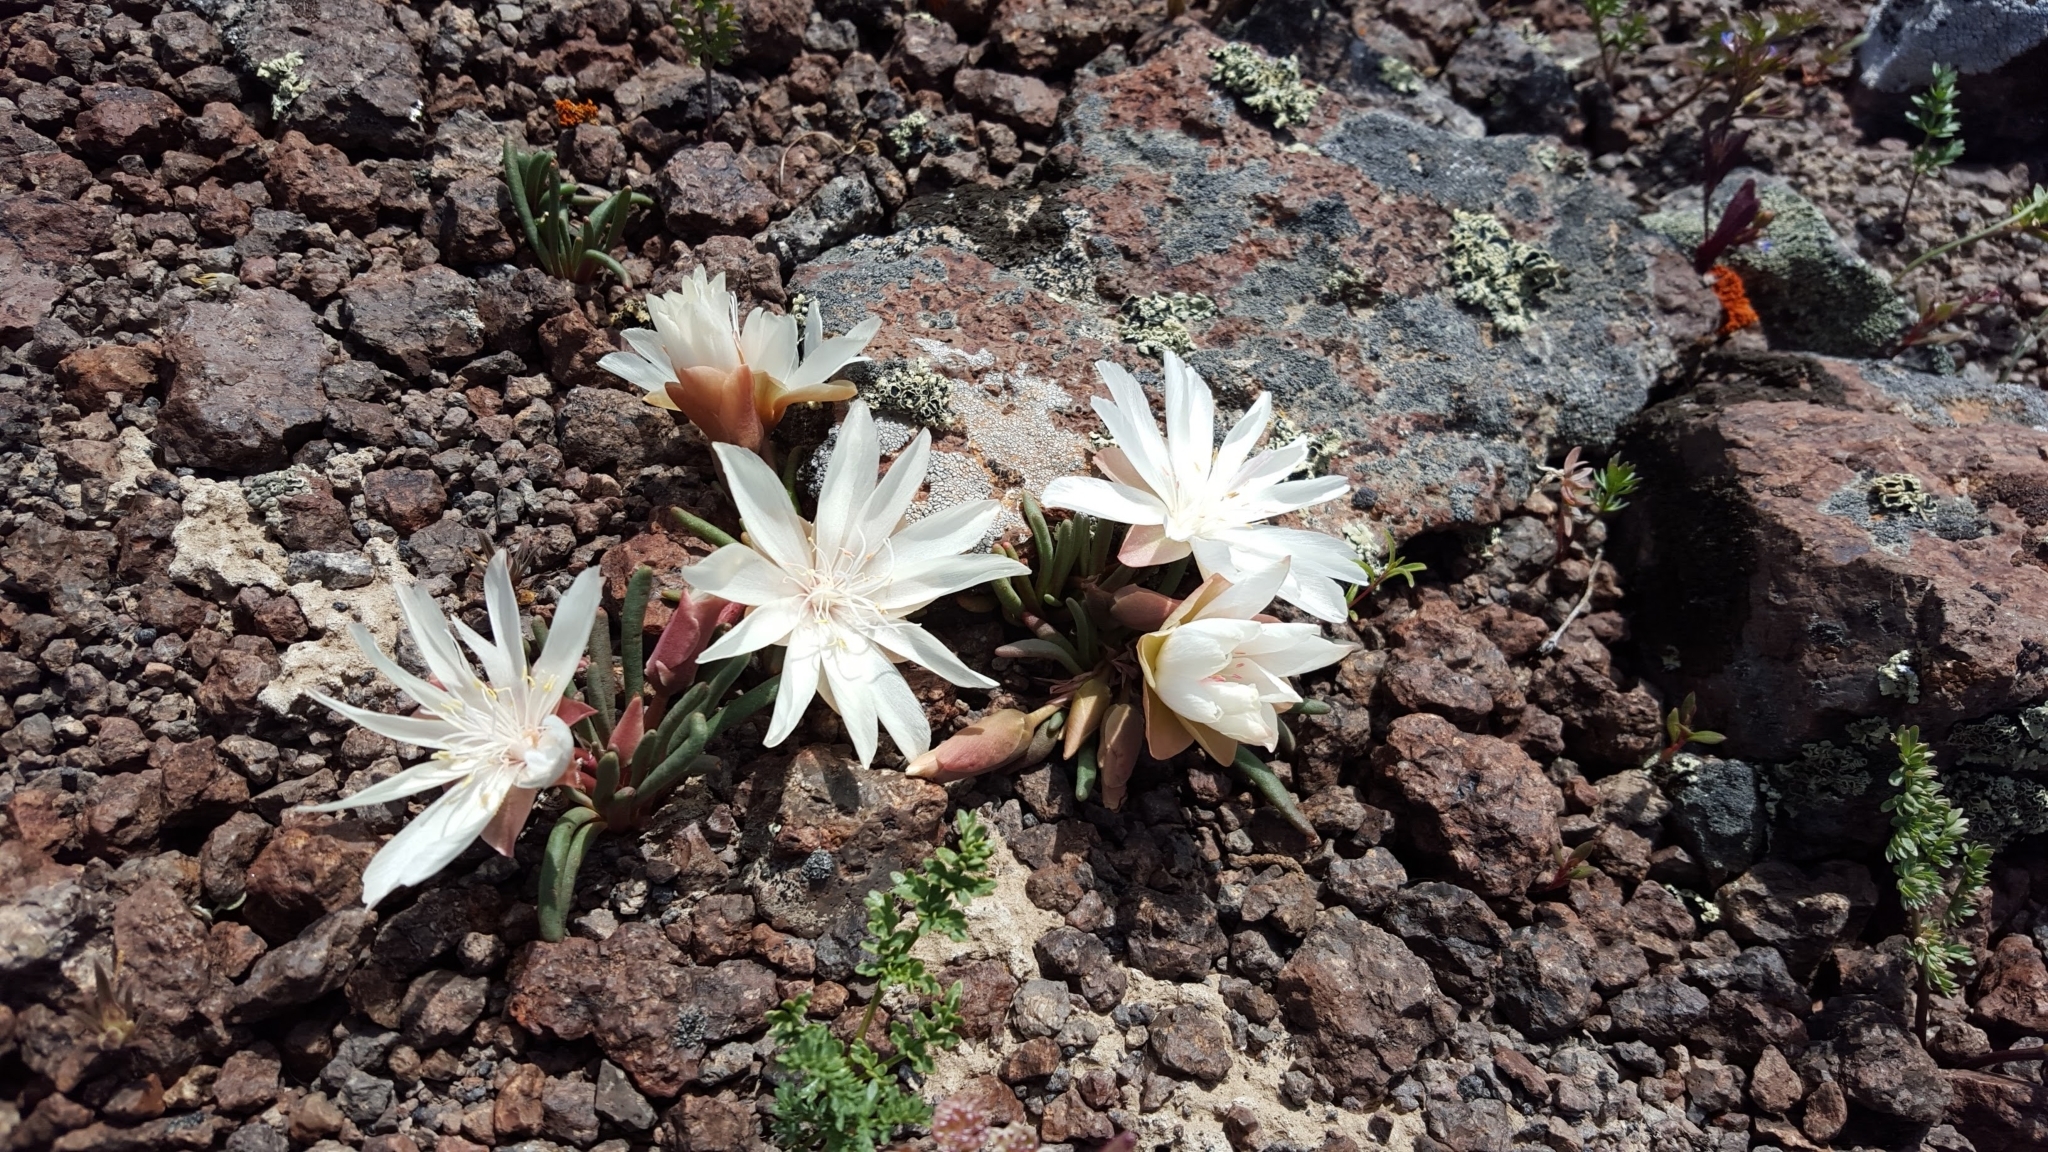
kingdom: Plantae
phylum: Tracheophyta
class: Magnoliopsida
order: Caryophyllales
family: Montiaceae
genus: Lewisia
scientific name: Lewisia rediviva
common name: Bitter-root
